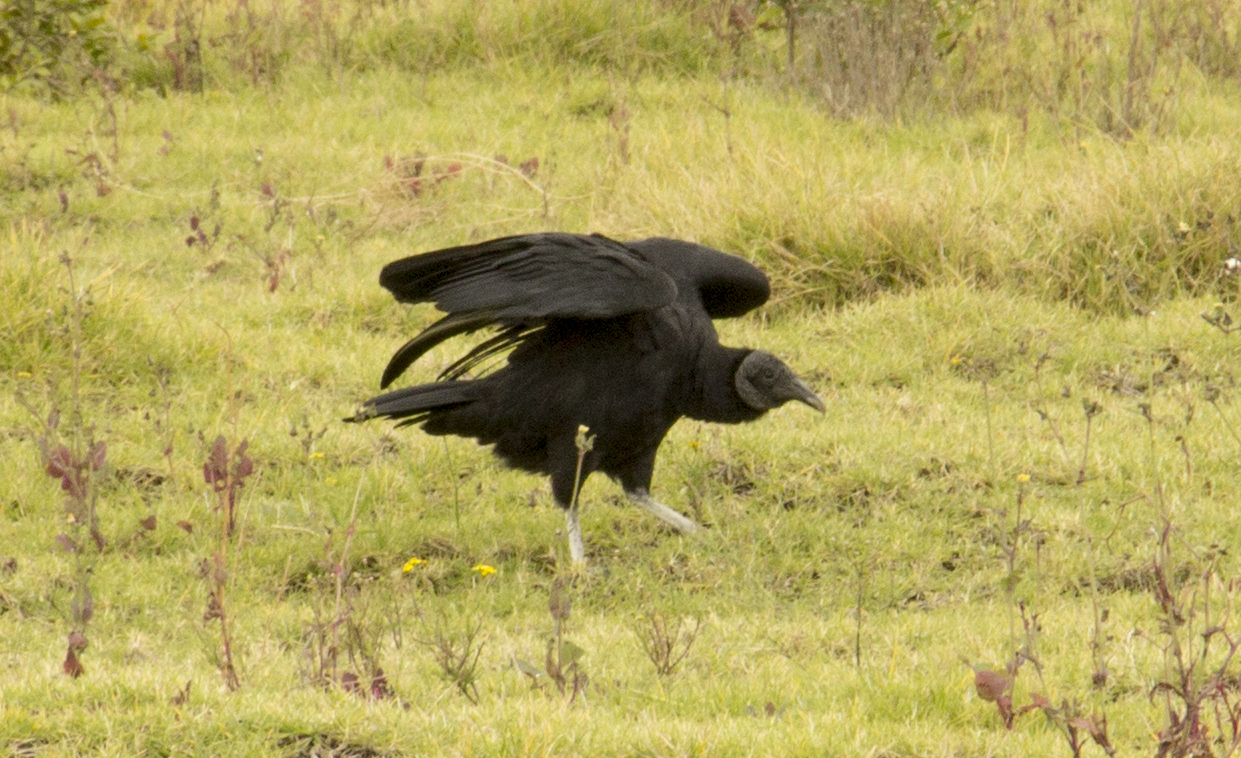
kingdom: Animalia
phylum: Chordata
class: Aves
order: Accipitriformes
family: Cathartidae
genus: Coragyps
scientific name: Coragyps atratus
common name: Black vulture
